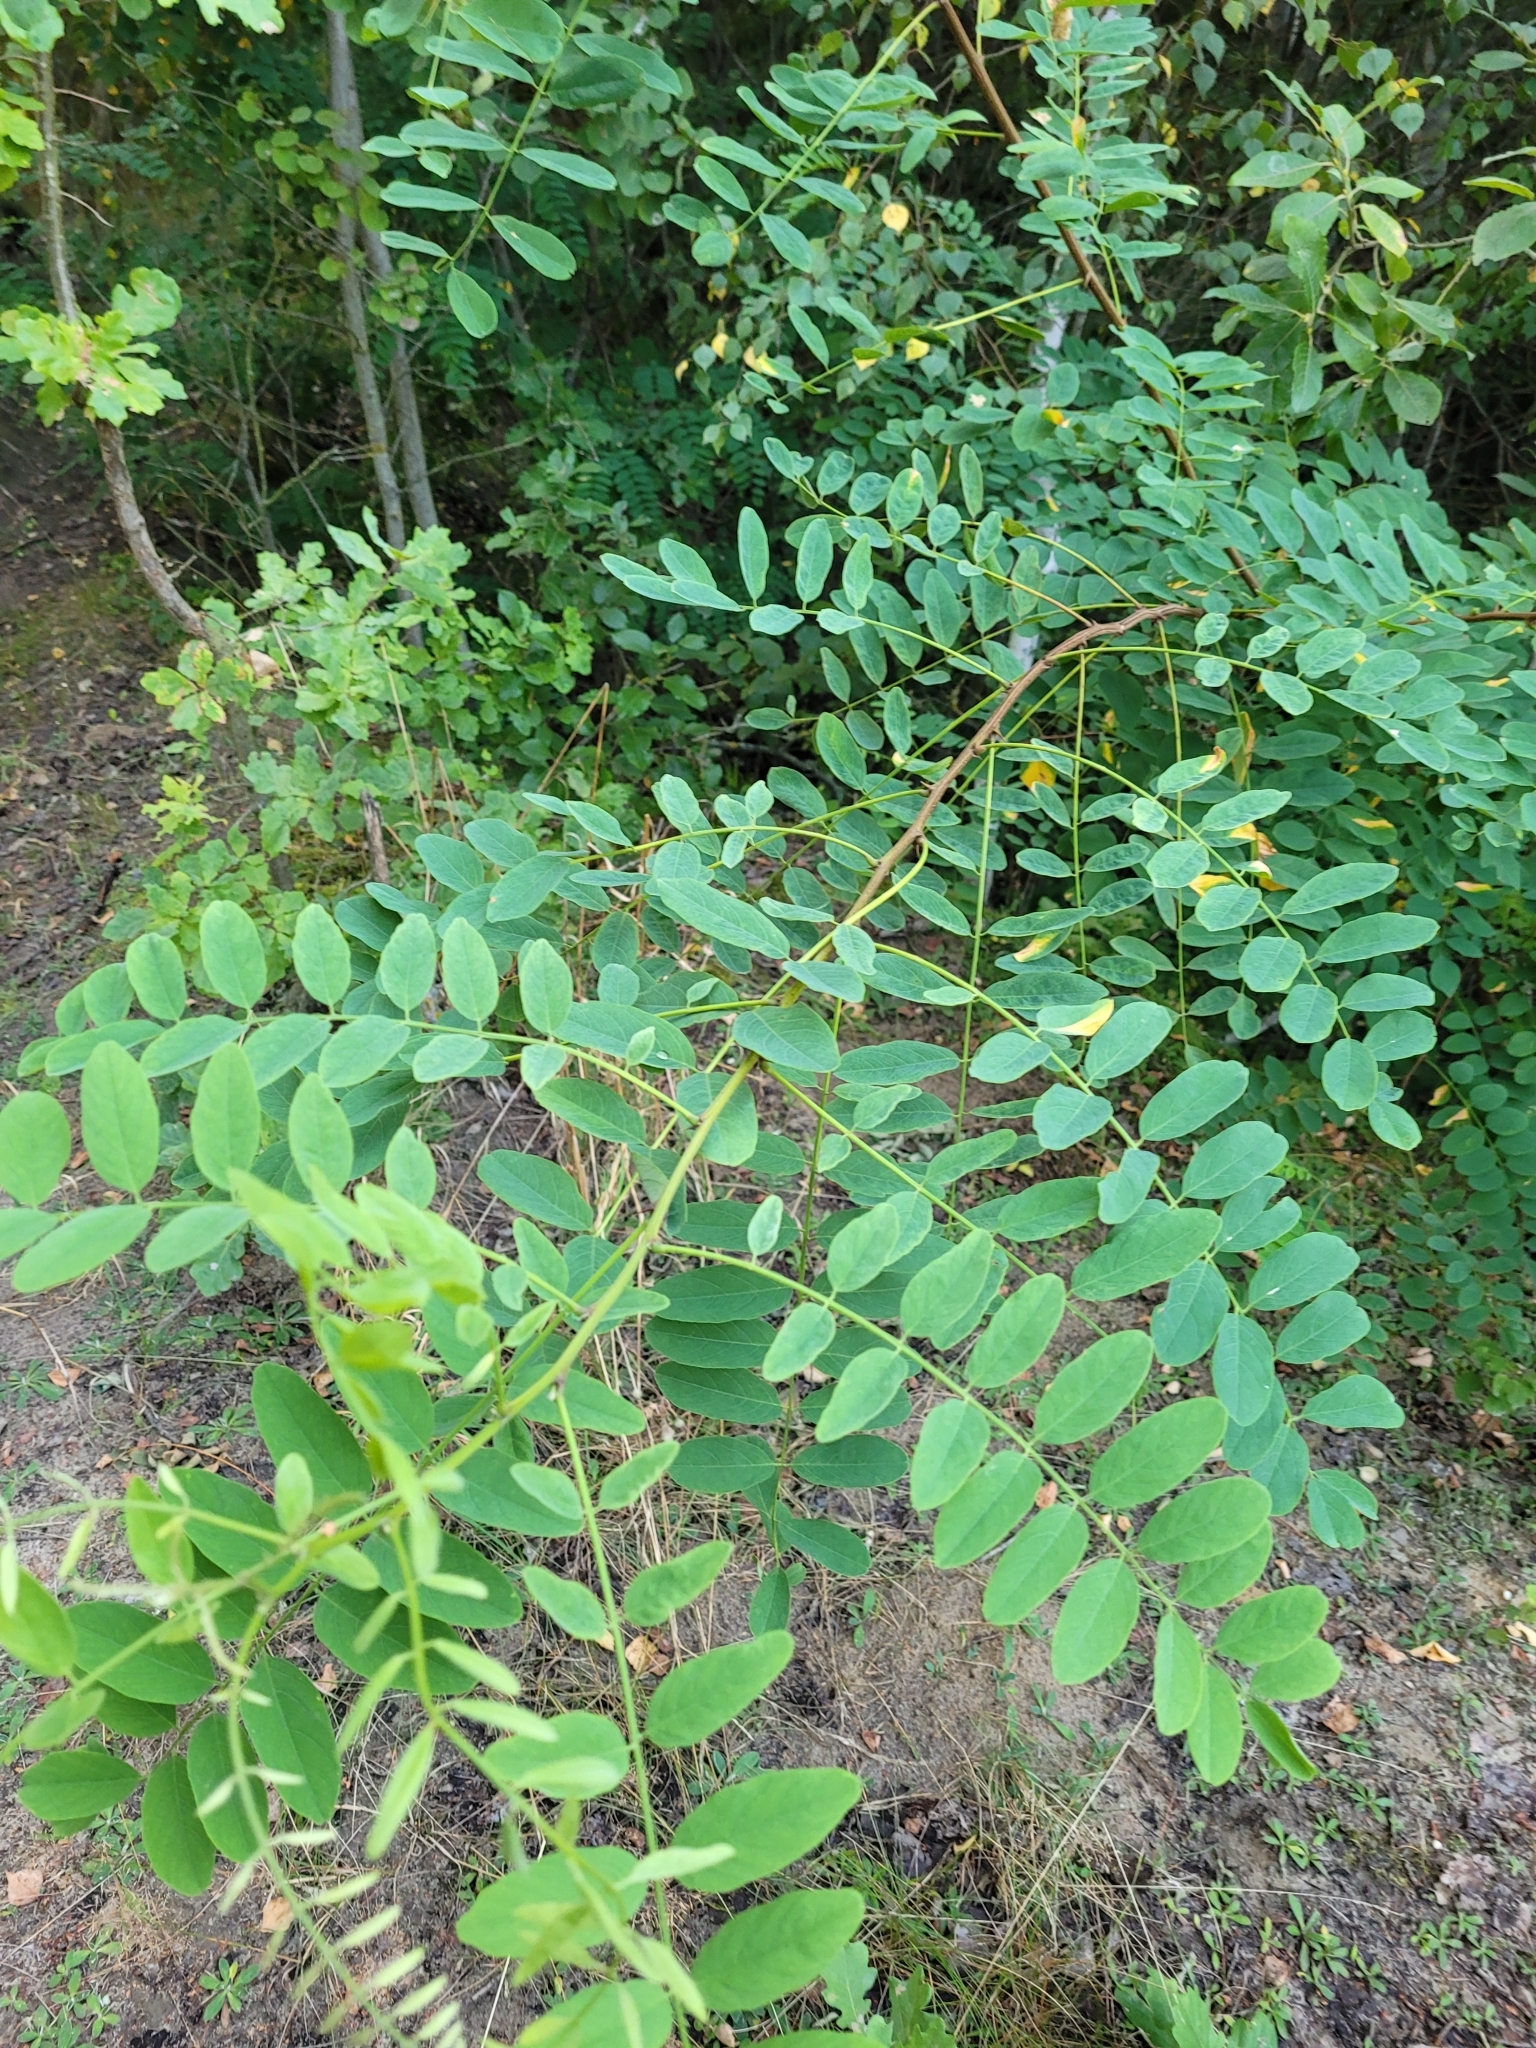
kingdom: Plantae
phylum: Tracheophyta
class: Magnoliopsida
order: Fabales
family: Fabaceae
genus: Robinia
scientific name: Robinia pseudoacacia
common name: Black locust
